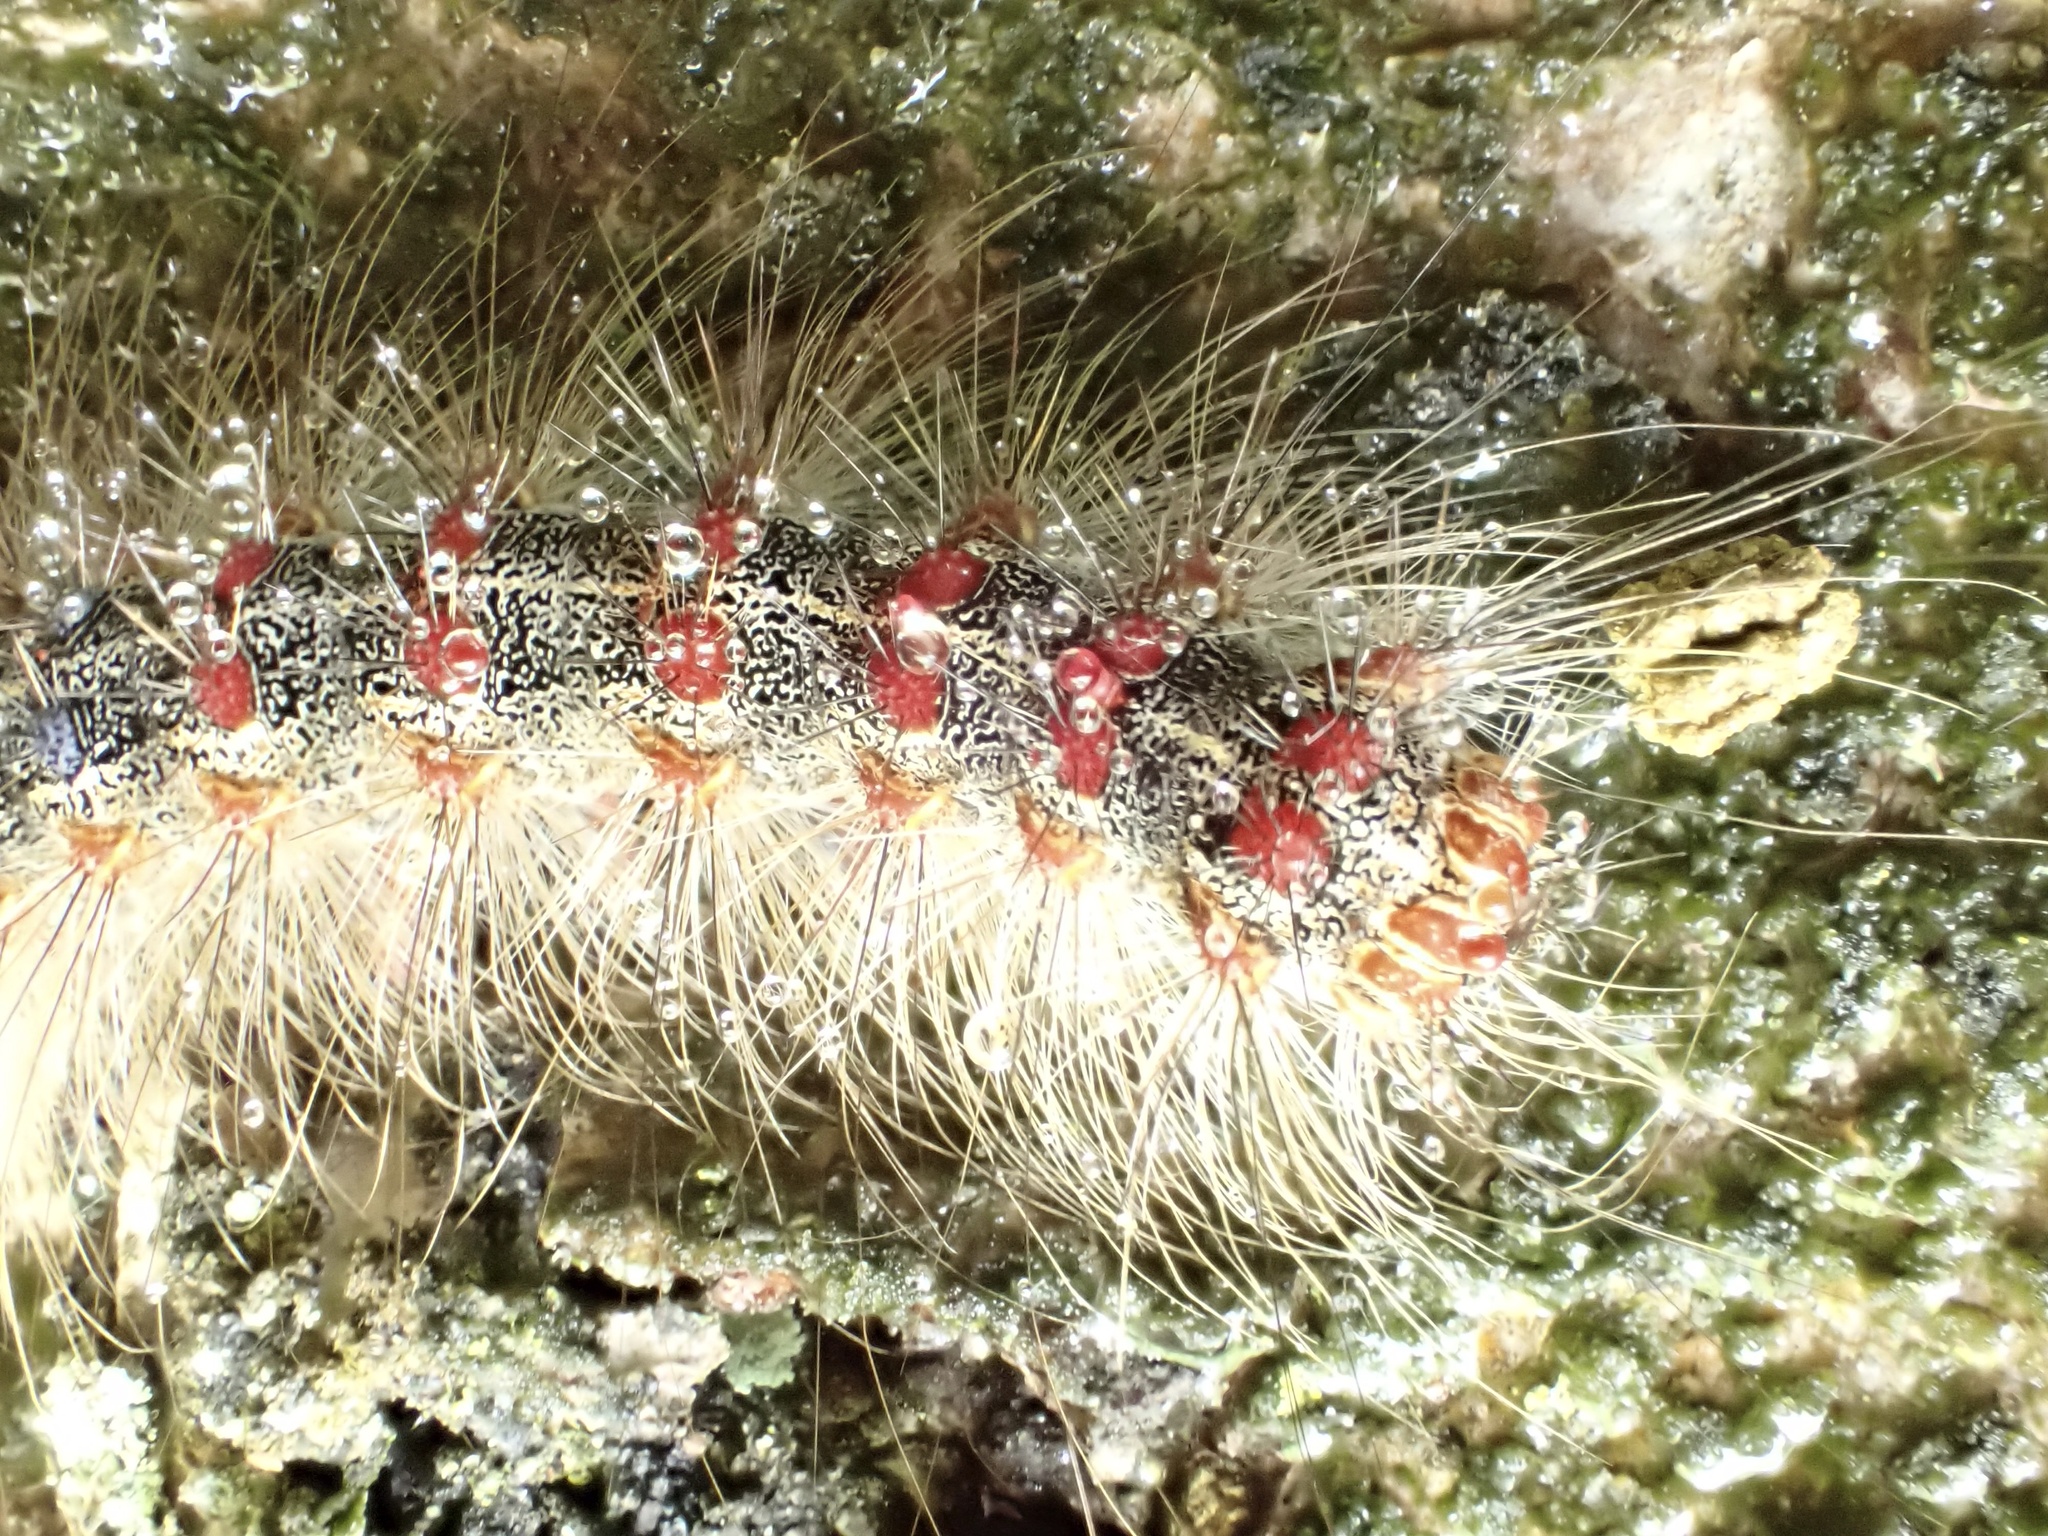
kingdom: Animalia
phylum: Arthropoda
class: Insecta
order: Lepidoptera
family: Erebidae
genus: Lymantria
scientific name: Lymantria dispar
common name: Gypsy moth
